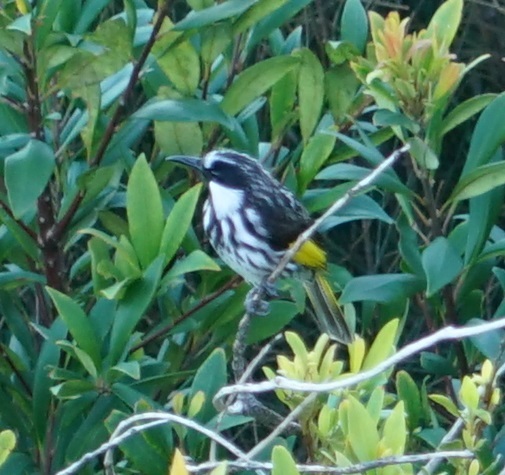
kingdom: Animalia
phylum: Chordata
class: Aves
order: Passeriformes
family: Meliphagidae
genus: Phylidonyris
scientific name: Phylidonyris niger
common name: White-cheeked honeyeater
